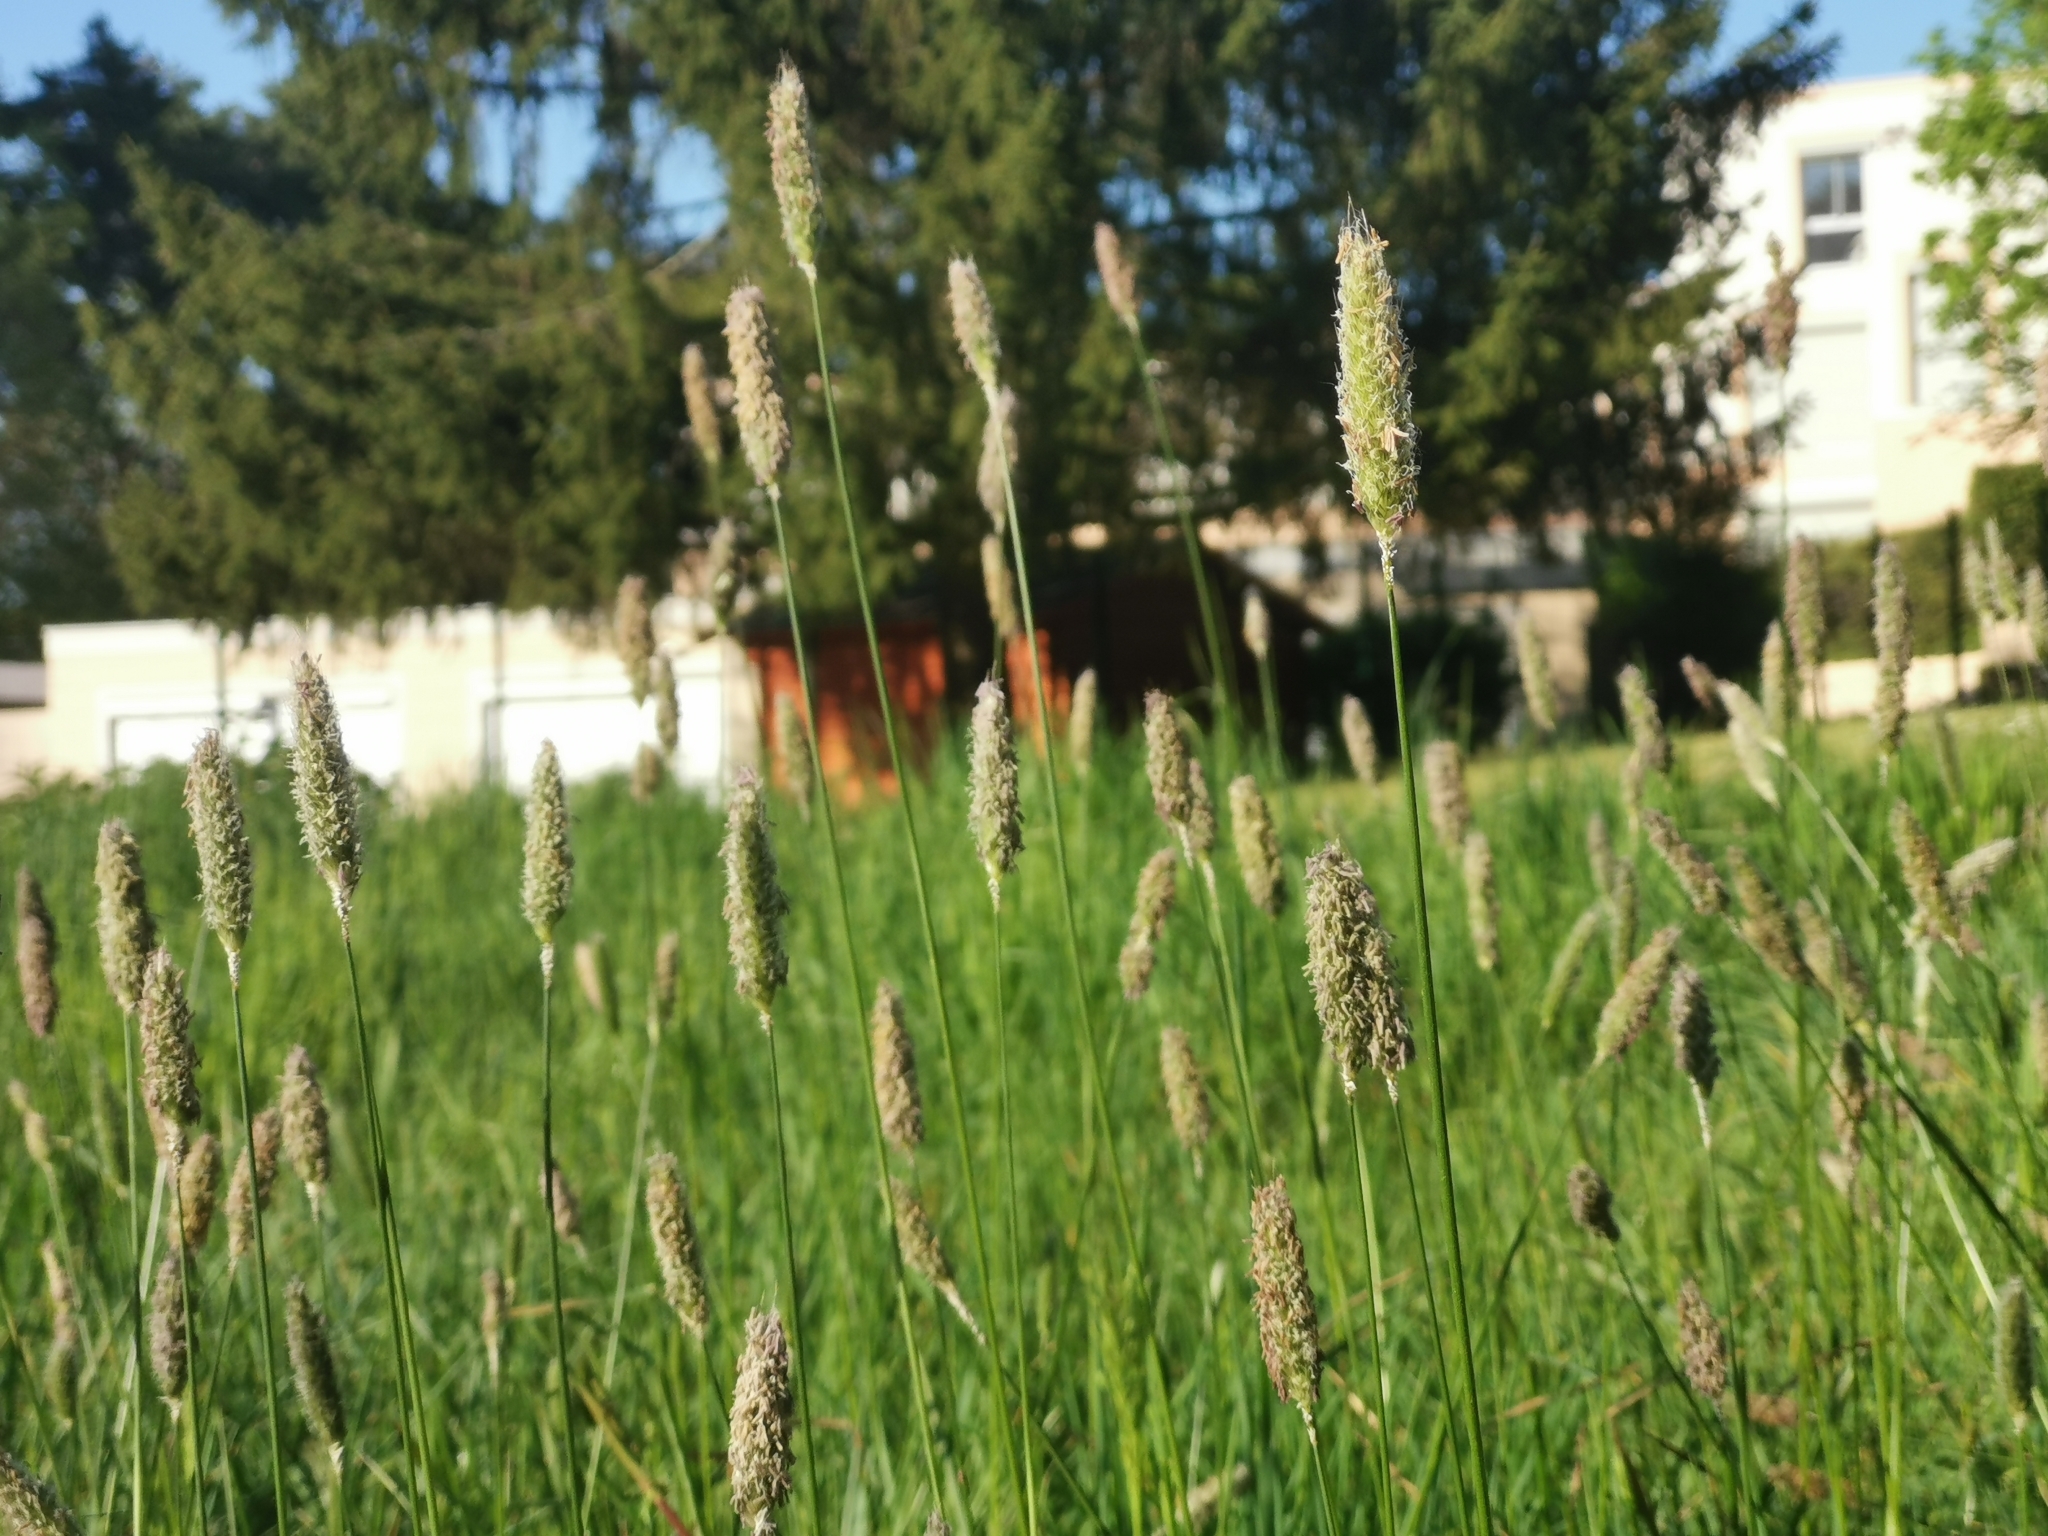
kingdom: Plantae
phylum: Tracheophyta
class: Liliopsida
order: Poales
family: Poaceae
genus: Alopecurus
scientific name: Alopecurus pratensis
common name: Meadow foxtail
